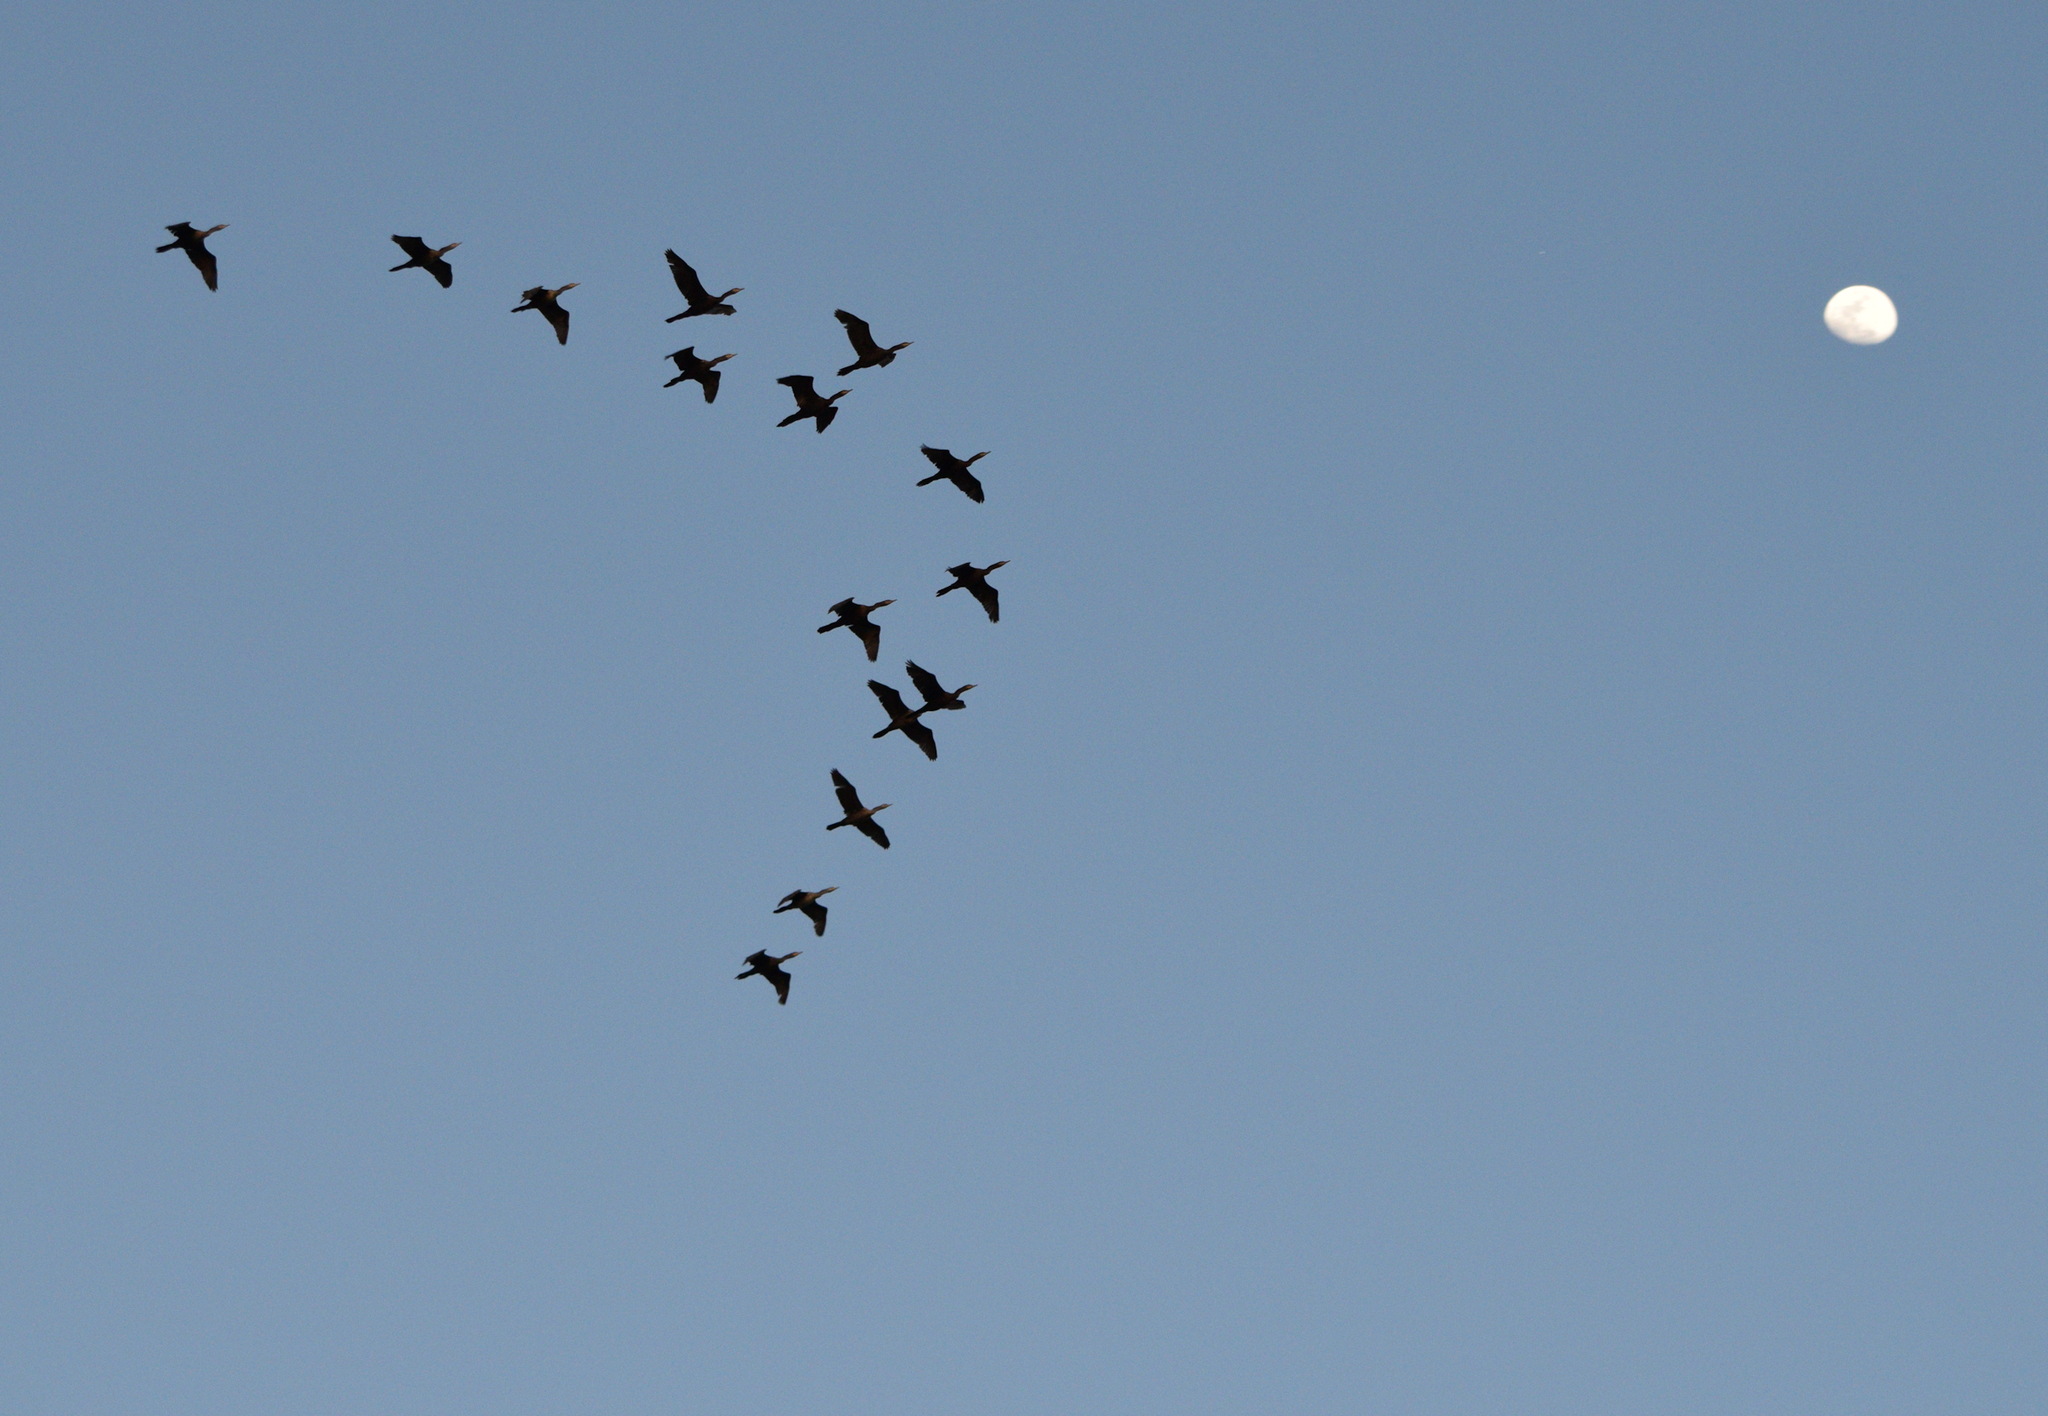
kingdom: Animalia
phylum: Chordata
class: Aves
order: Suliformes
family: Phalacrocoracidae
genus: Phalacrocorax
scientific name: Phalacrocorax brasilianus
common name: Neotropic cormorant
